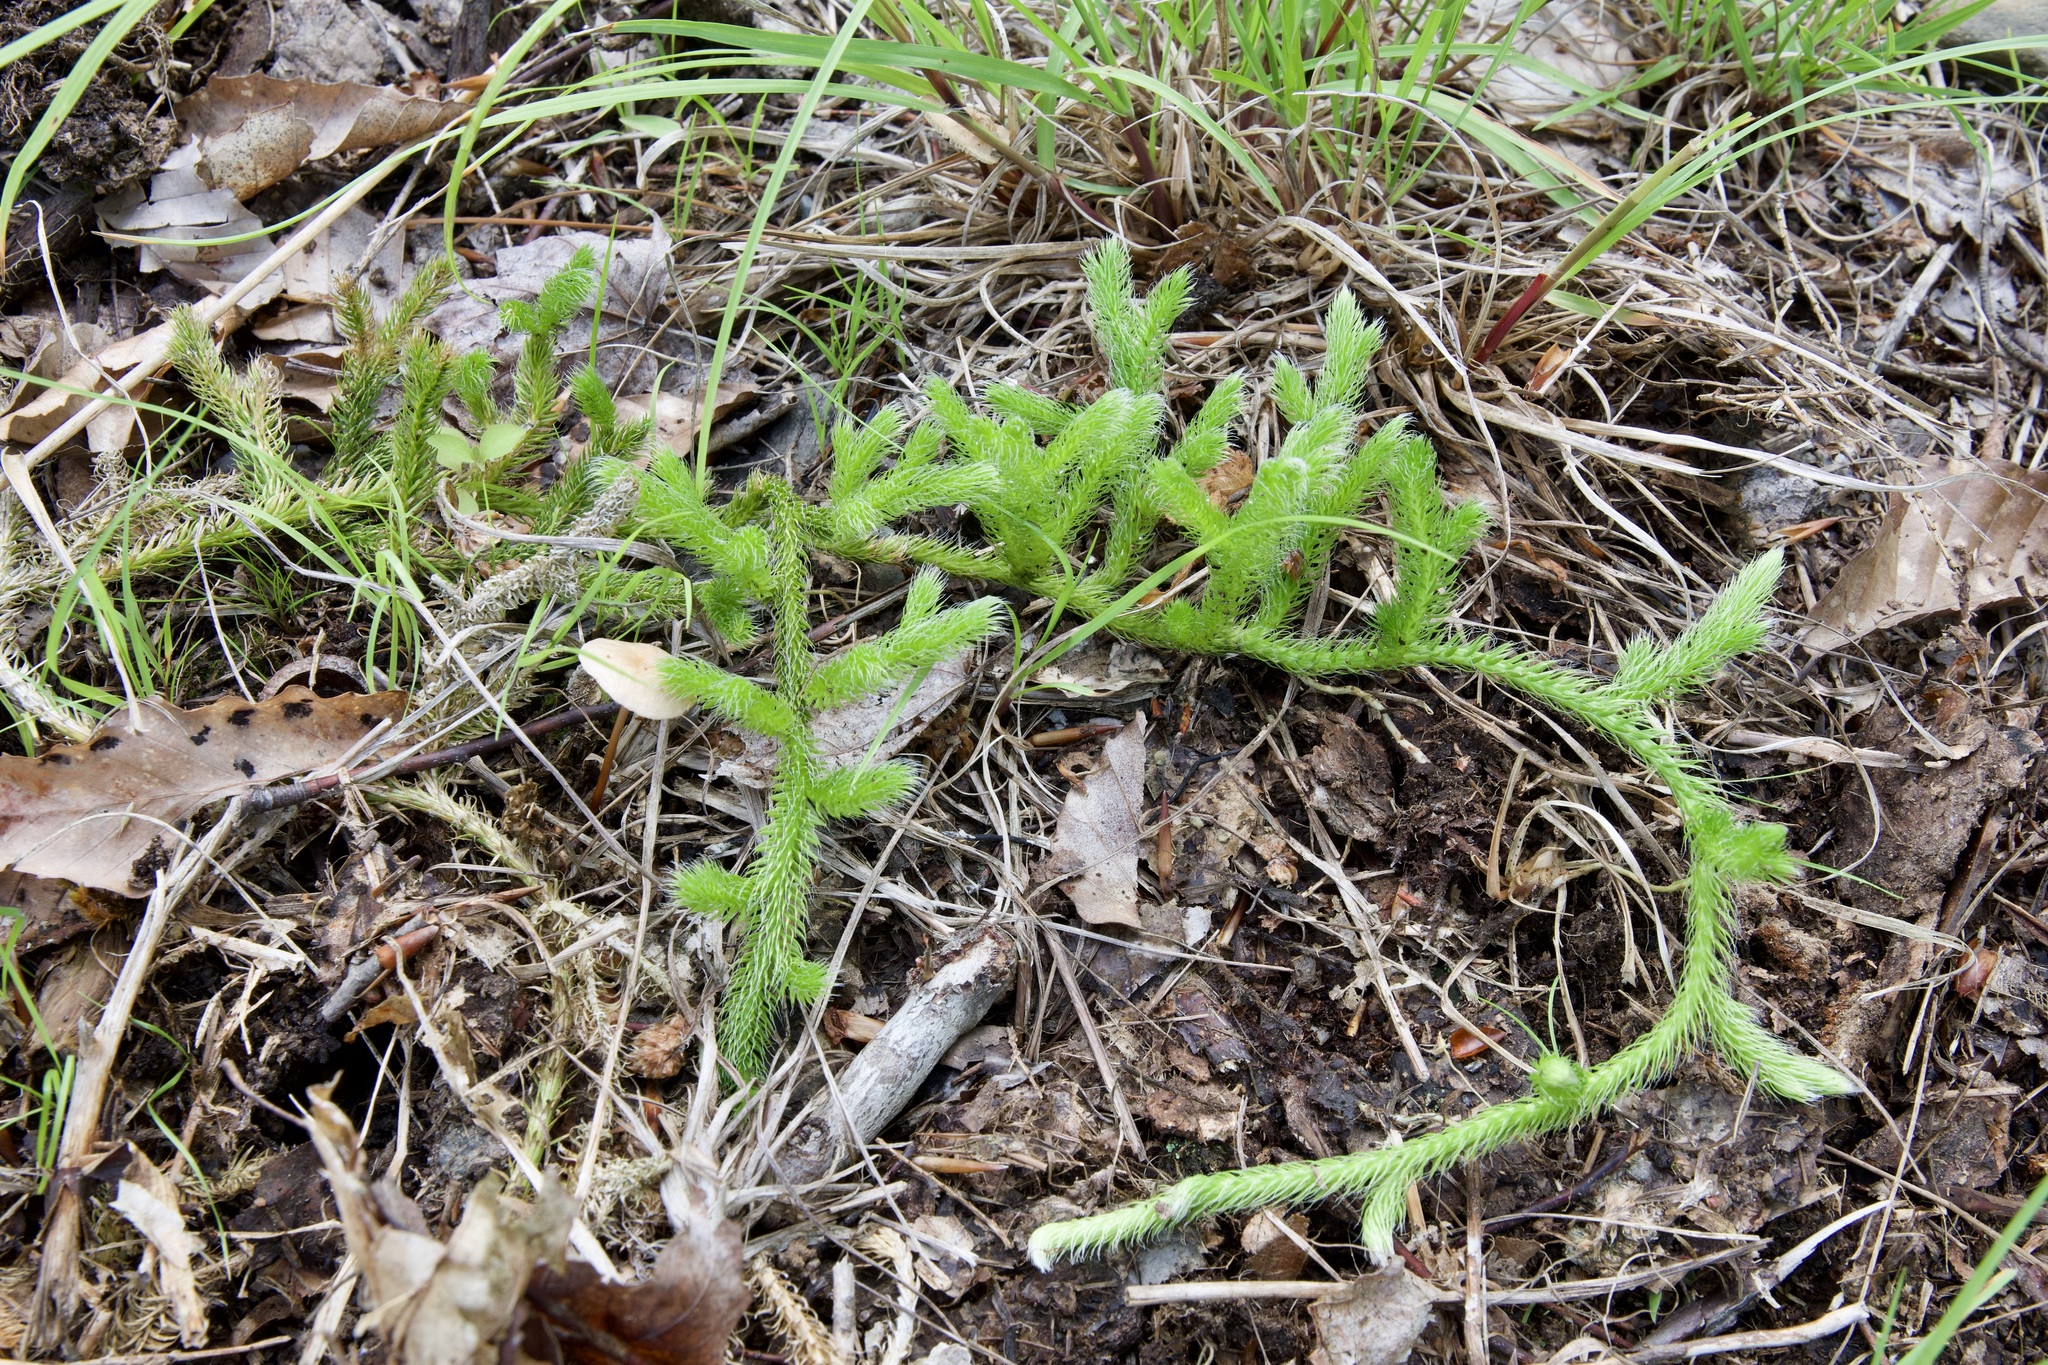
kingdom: Plantae
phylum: Tracheophyta
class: Lycopodiopsida
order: Lycopodiales
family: Lycopodiaceae
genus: Lycopodium
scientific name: Lycopodium clavatum
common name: Stag's-horn clubmoss
